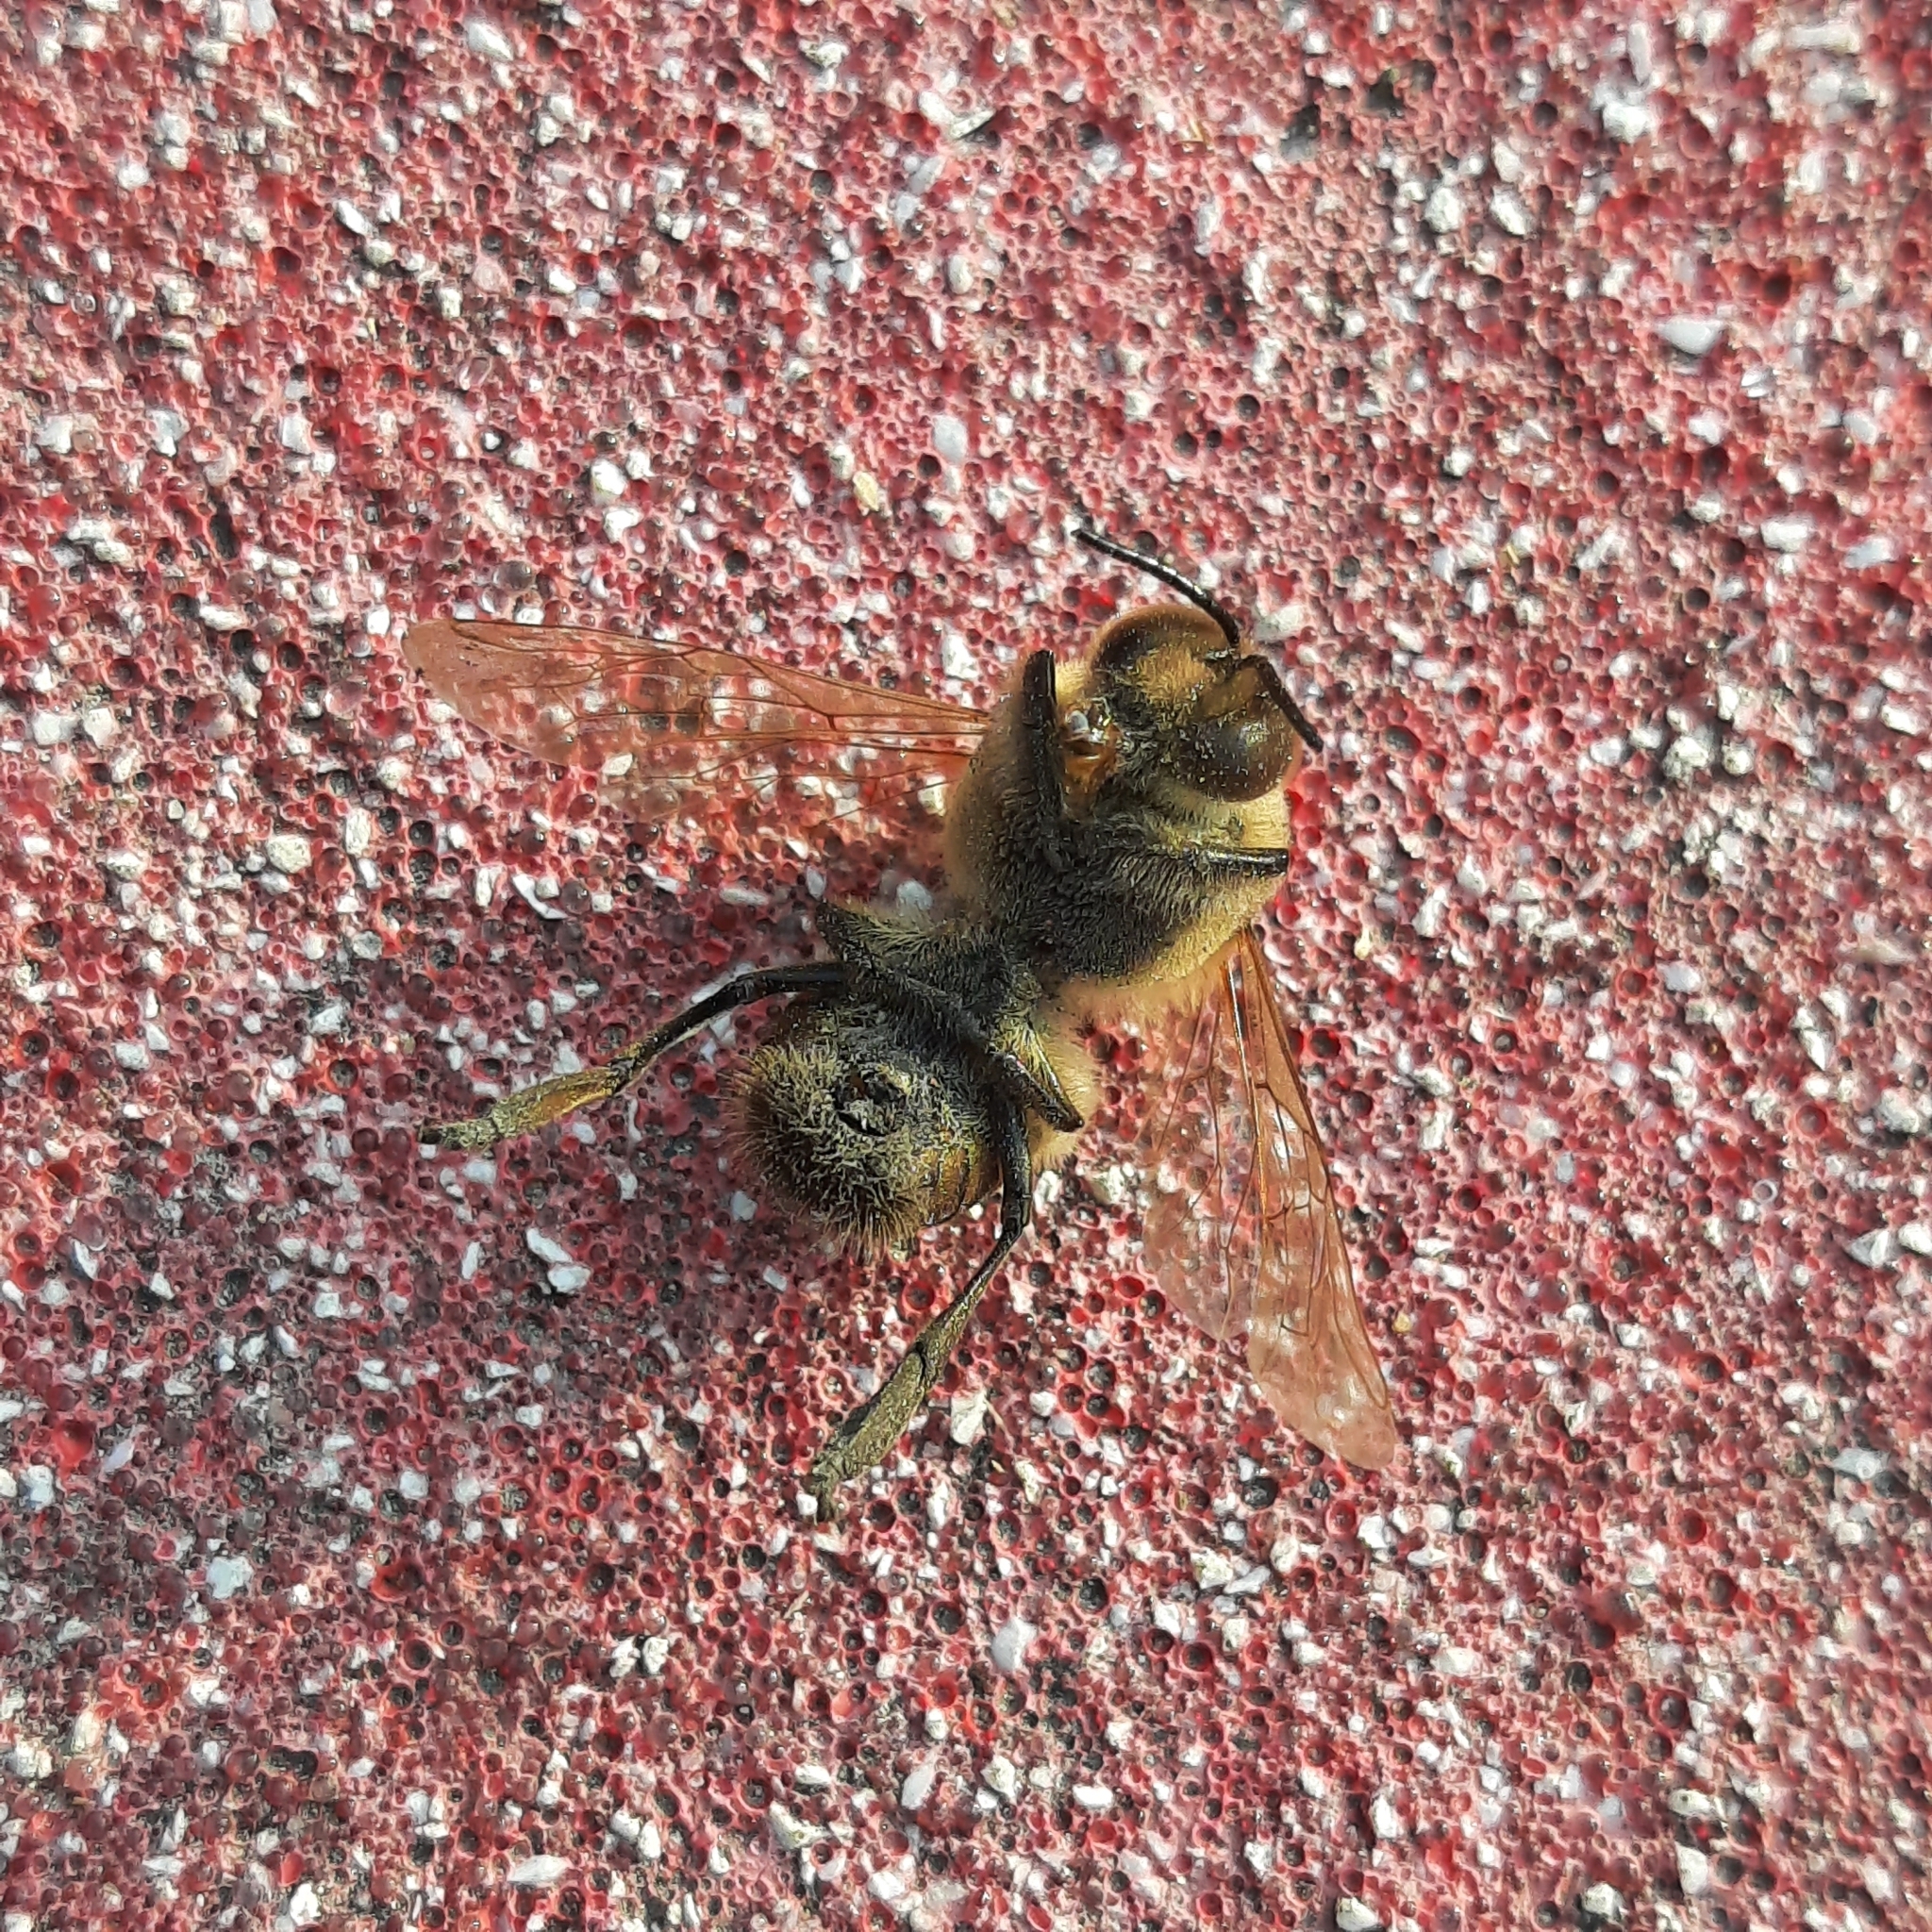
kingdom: Animalia
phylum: Arthropoda
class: Insecta
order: Hymenoptera
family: Apidae
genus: Apis
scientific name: Apis mellifera
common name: Honey bee
